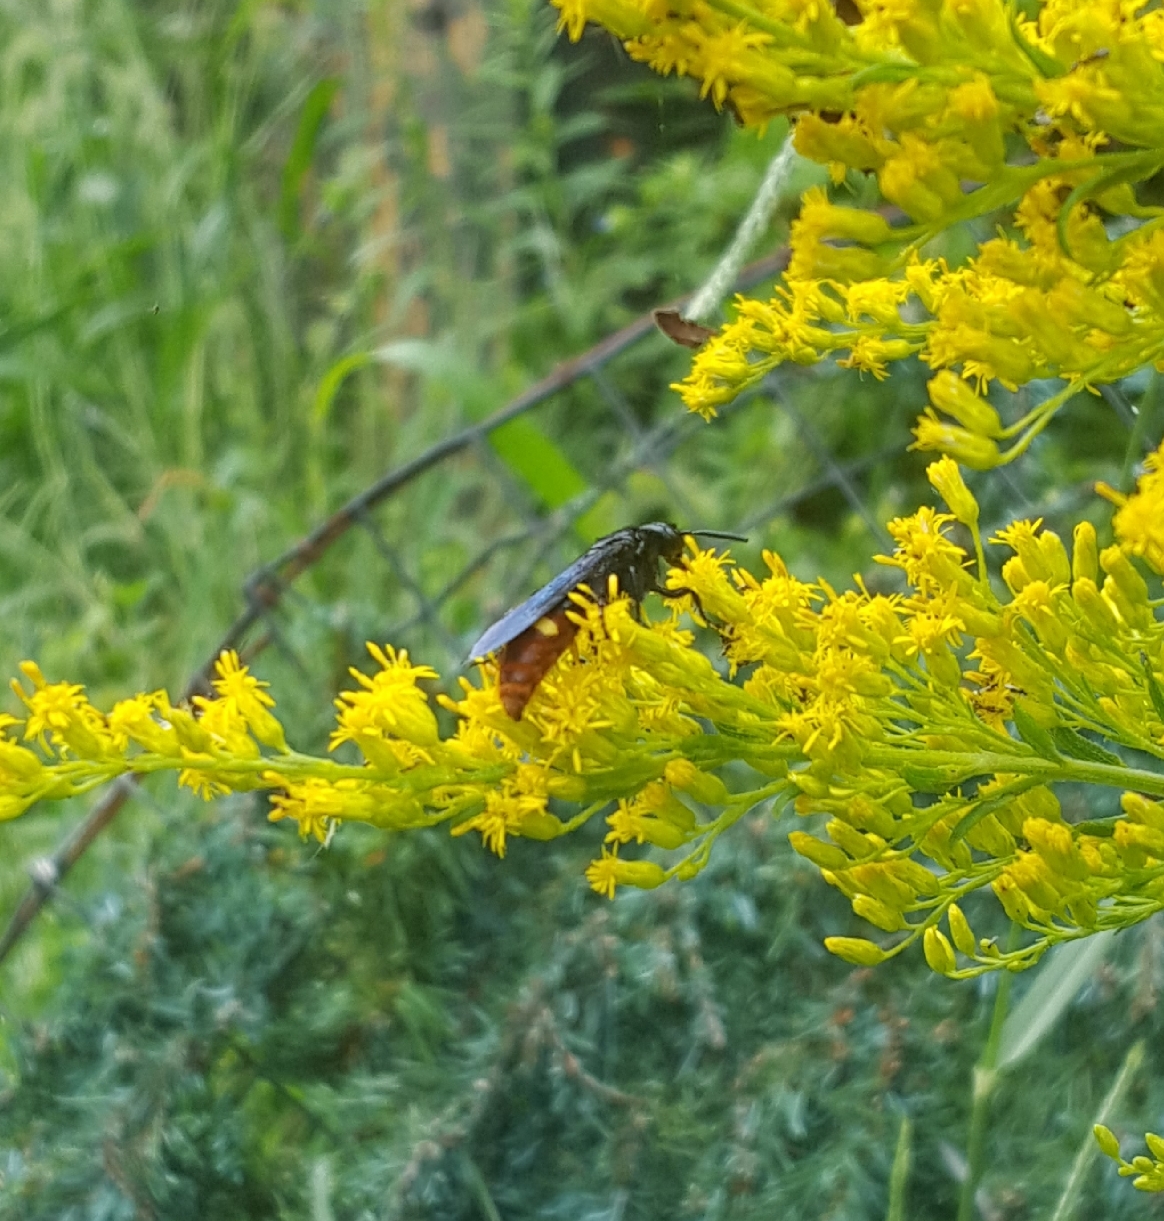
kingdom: Animalia
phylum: Arthropoda
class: Insecta
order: Hymenoptera
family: Scoliidae
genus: Scolia
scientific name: Scolia dubia
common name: Blue-winged scoliid wasp
